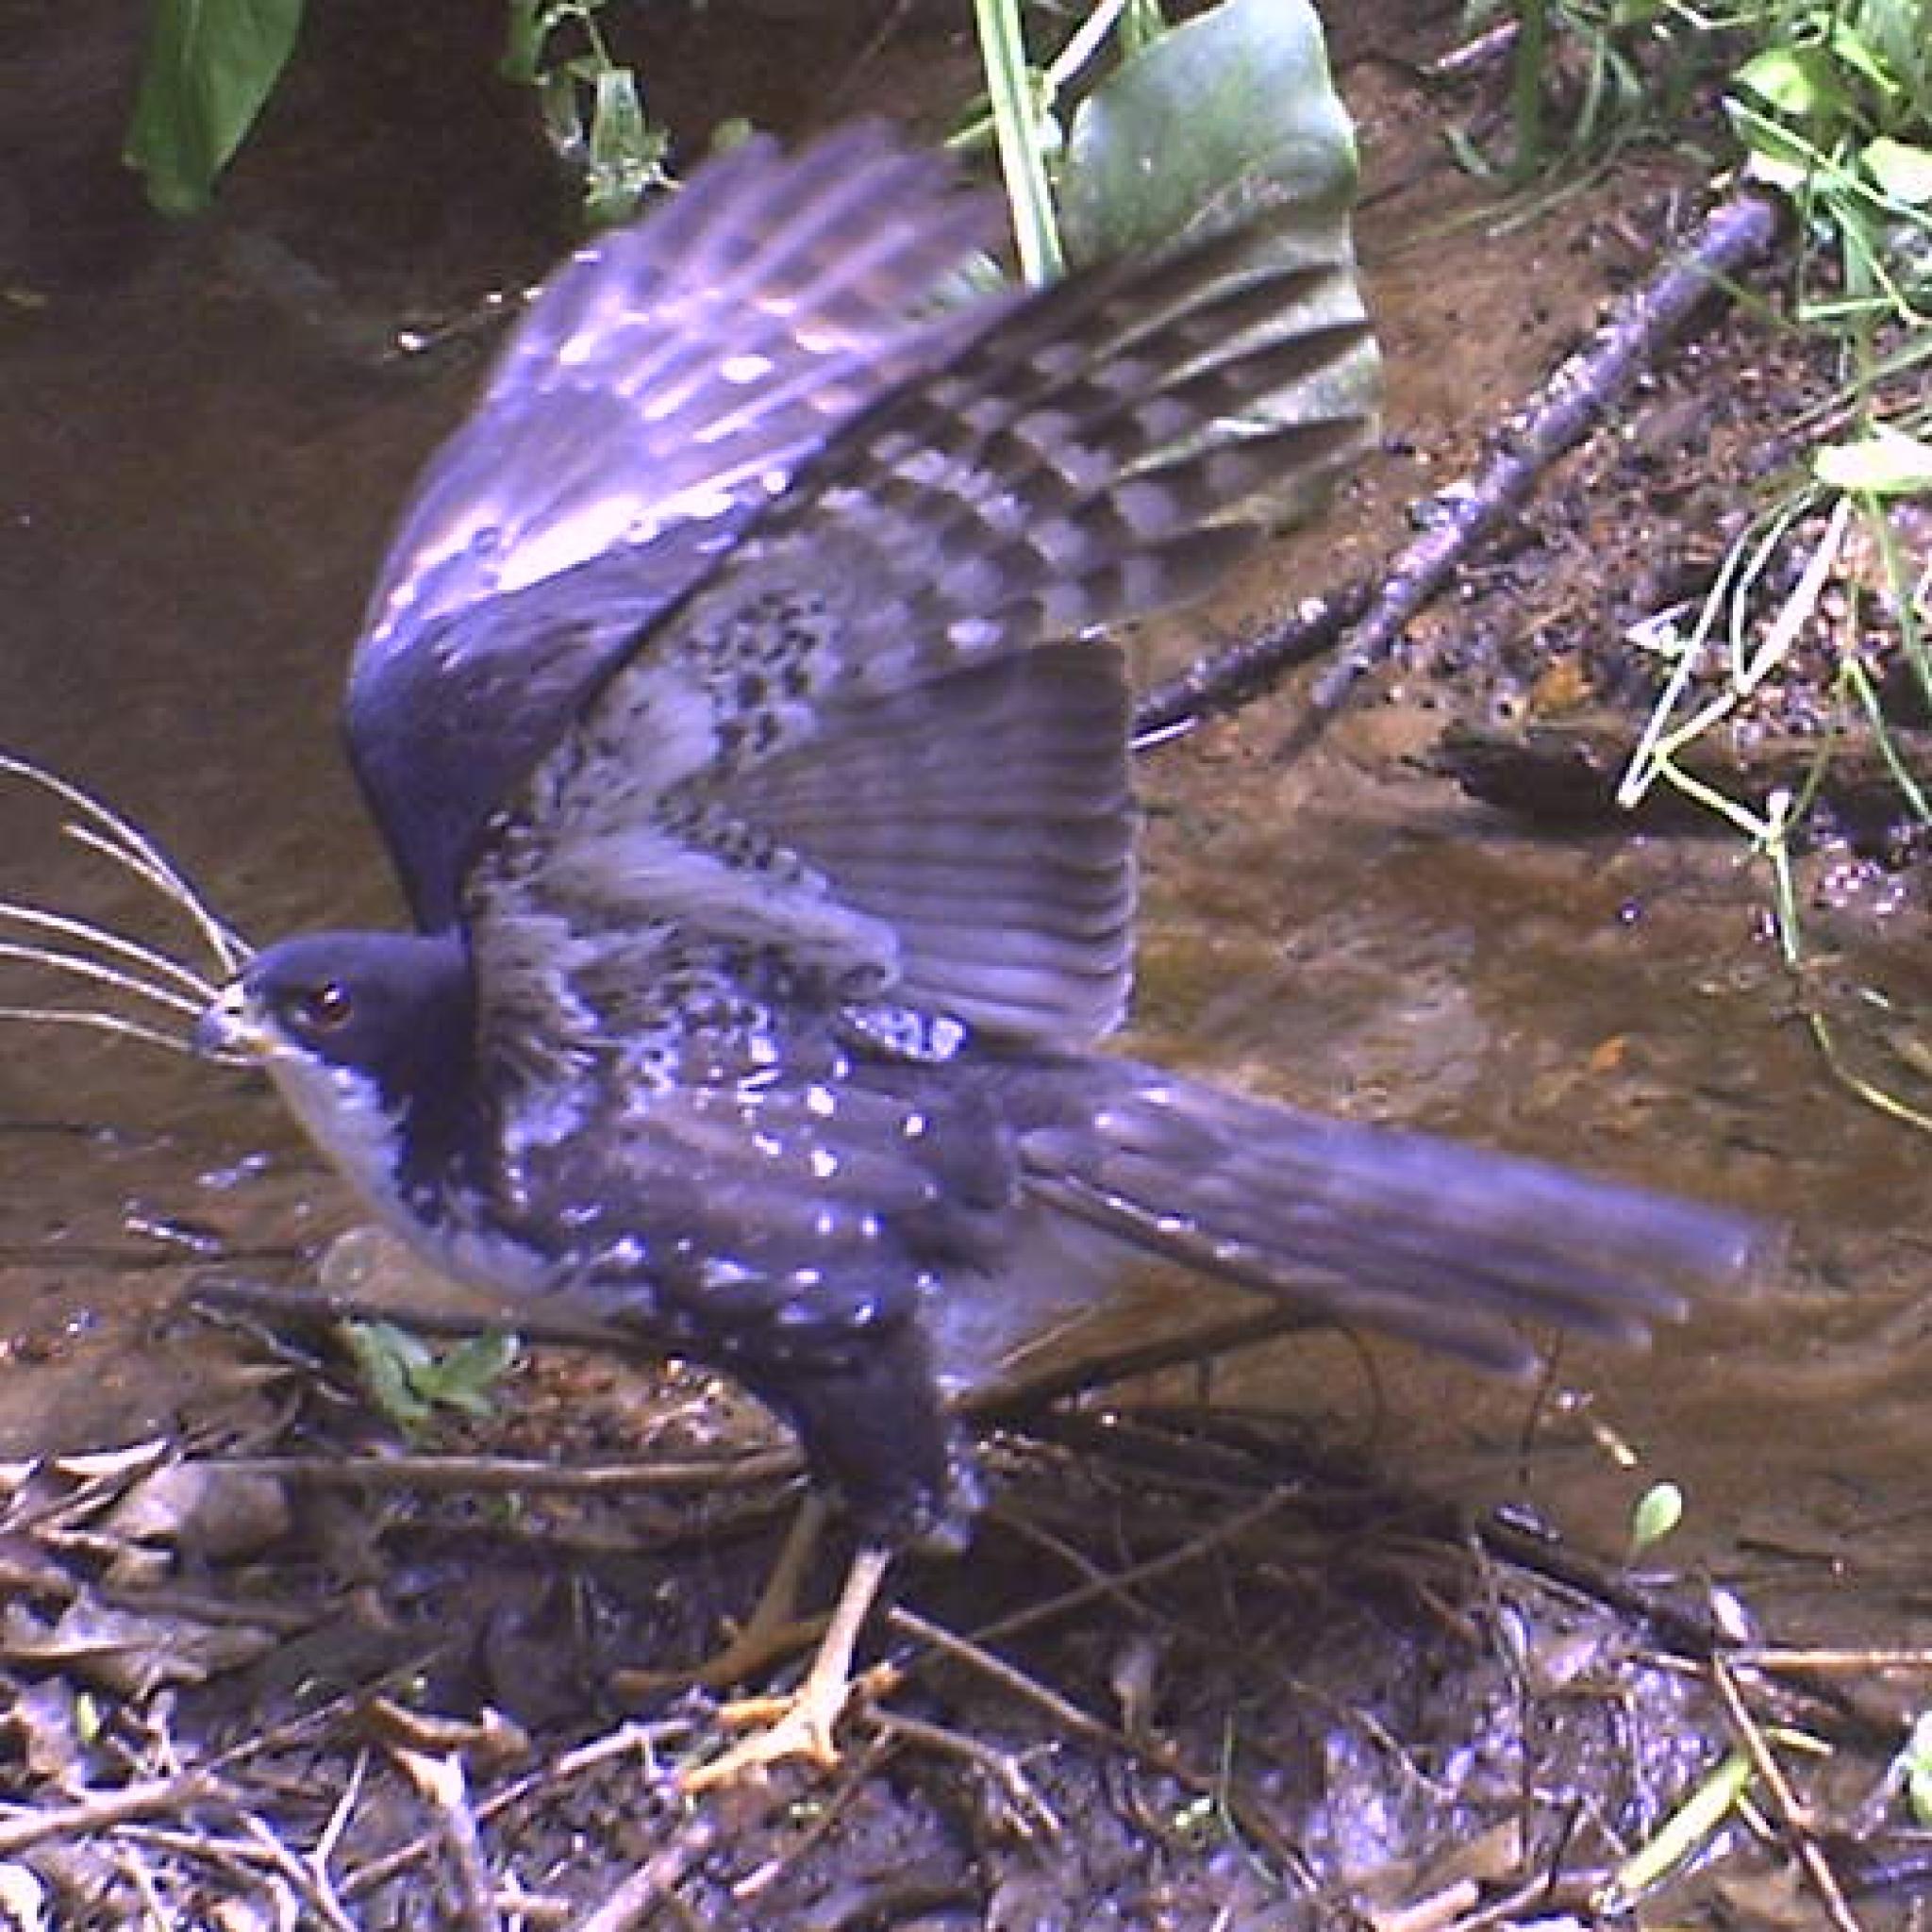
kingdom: Animalia
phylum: Chordata
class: Aves
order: Accipitriformes
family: Accipitridae
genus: Accipiter
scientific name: Accipiter melanoleucus
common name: Black sparrowhawk
